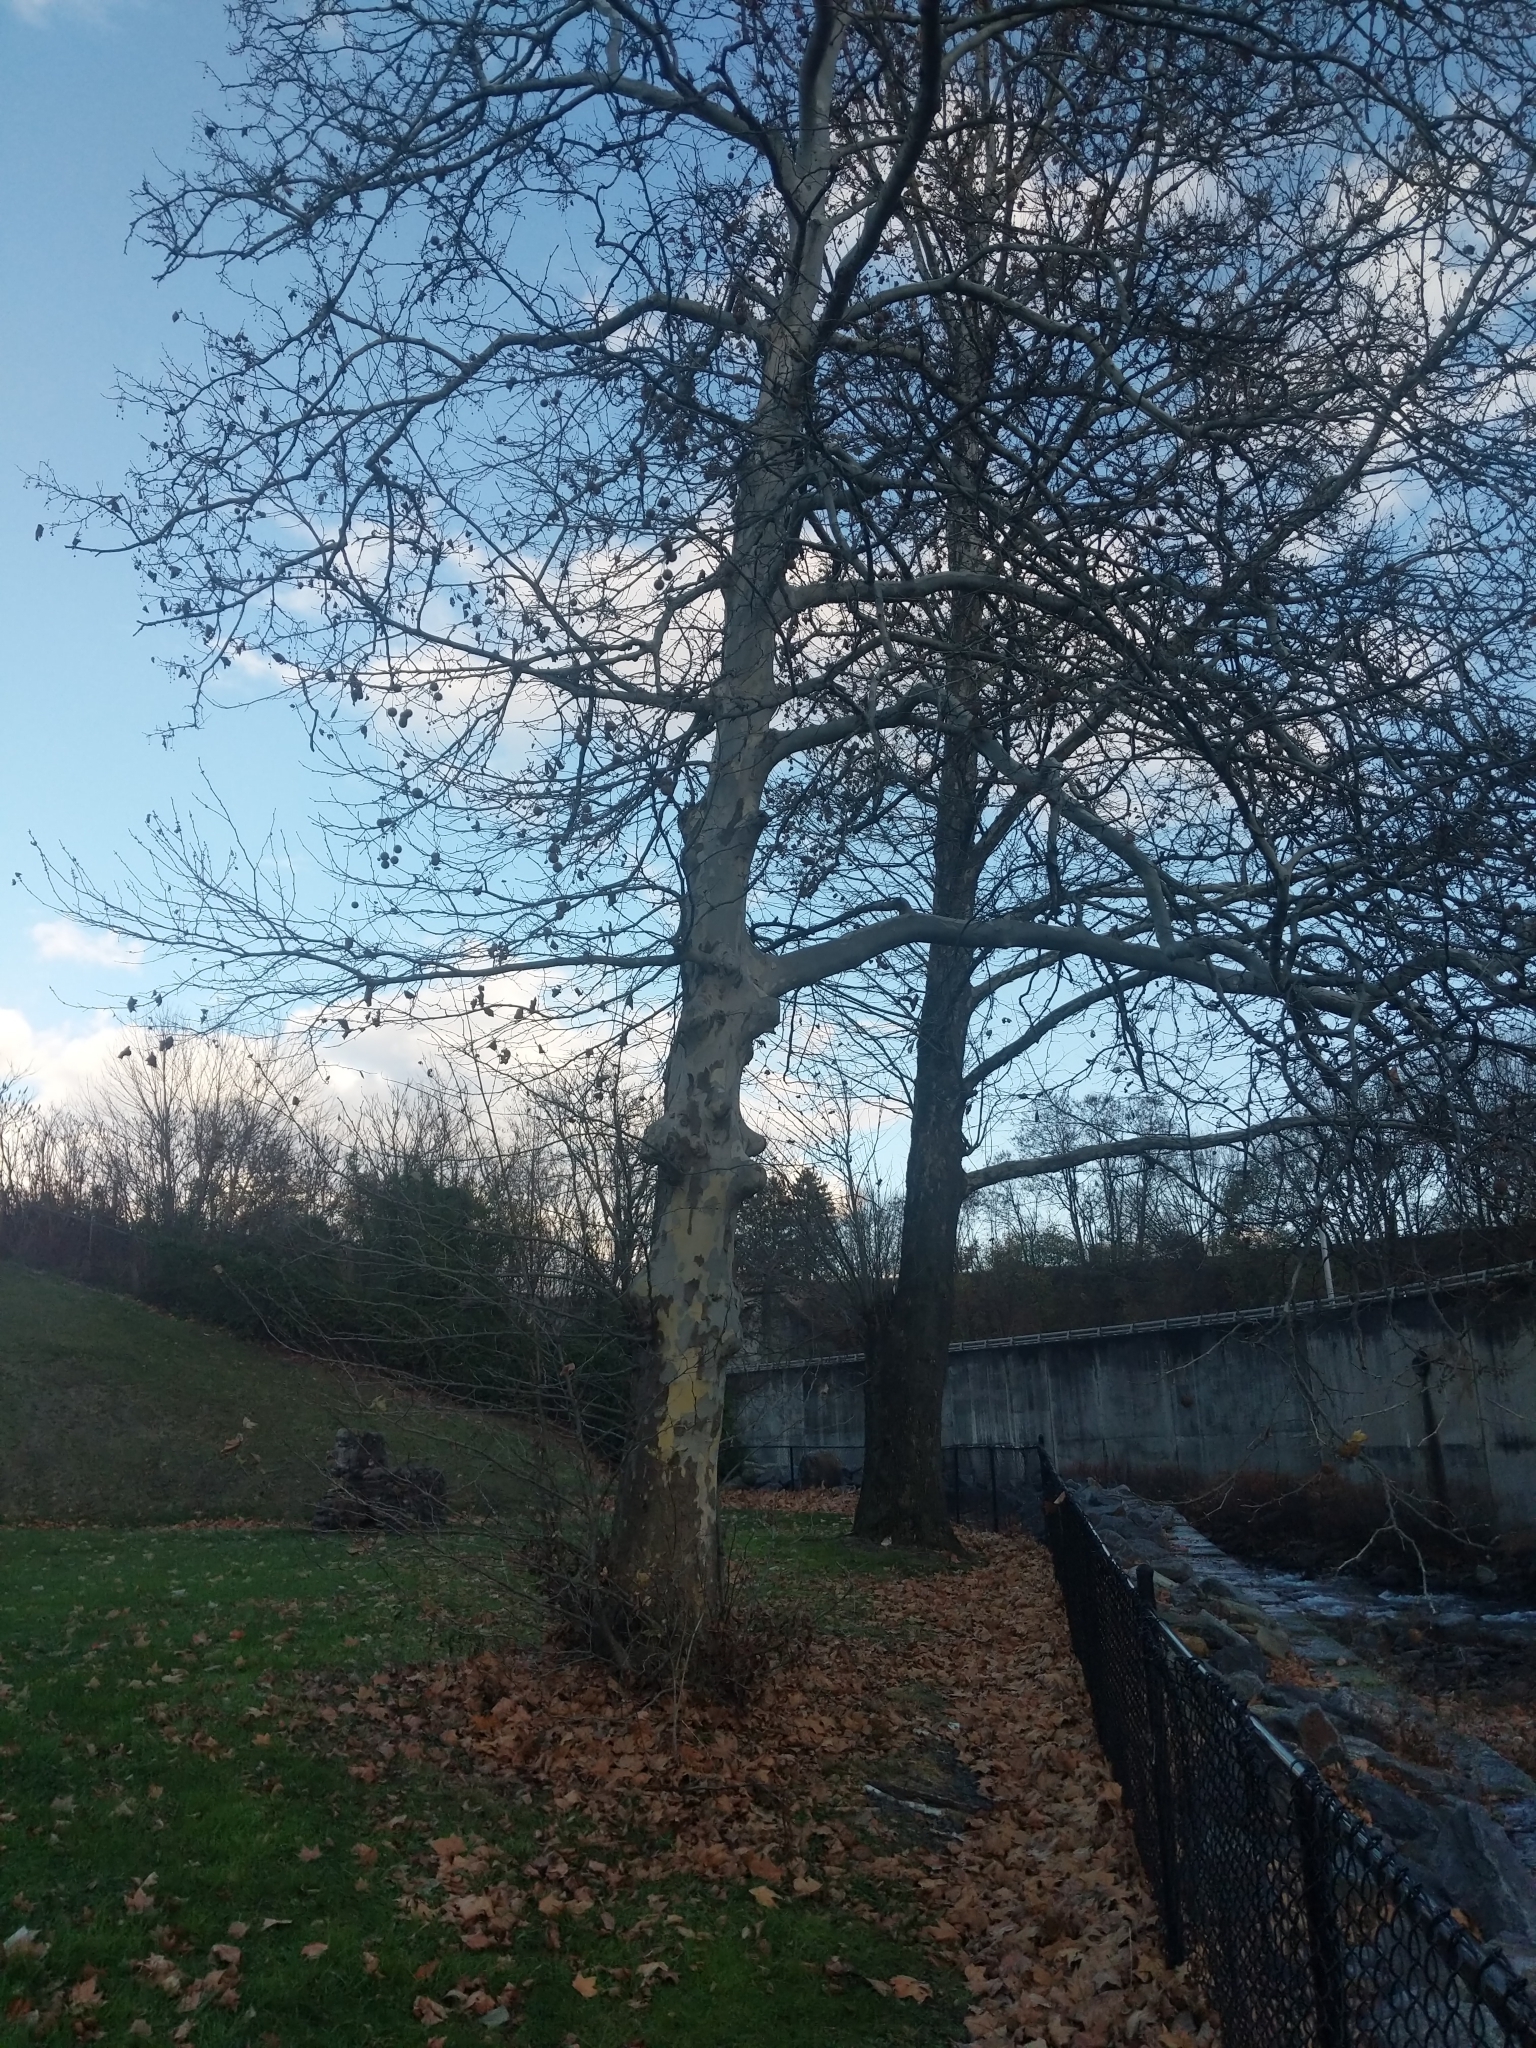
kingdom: Plantae
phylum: Tracheophyta
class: Magnoliopsida
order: Proteales
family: Platanaceae
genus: Platanus
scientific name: Platanus occidentalis
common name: American sycamore
